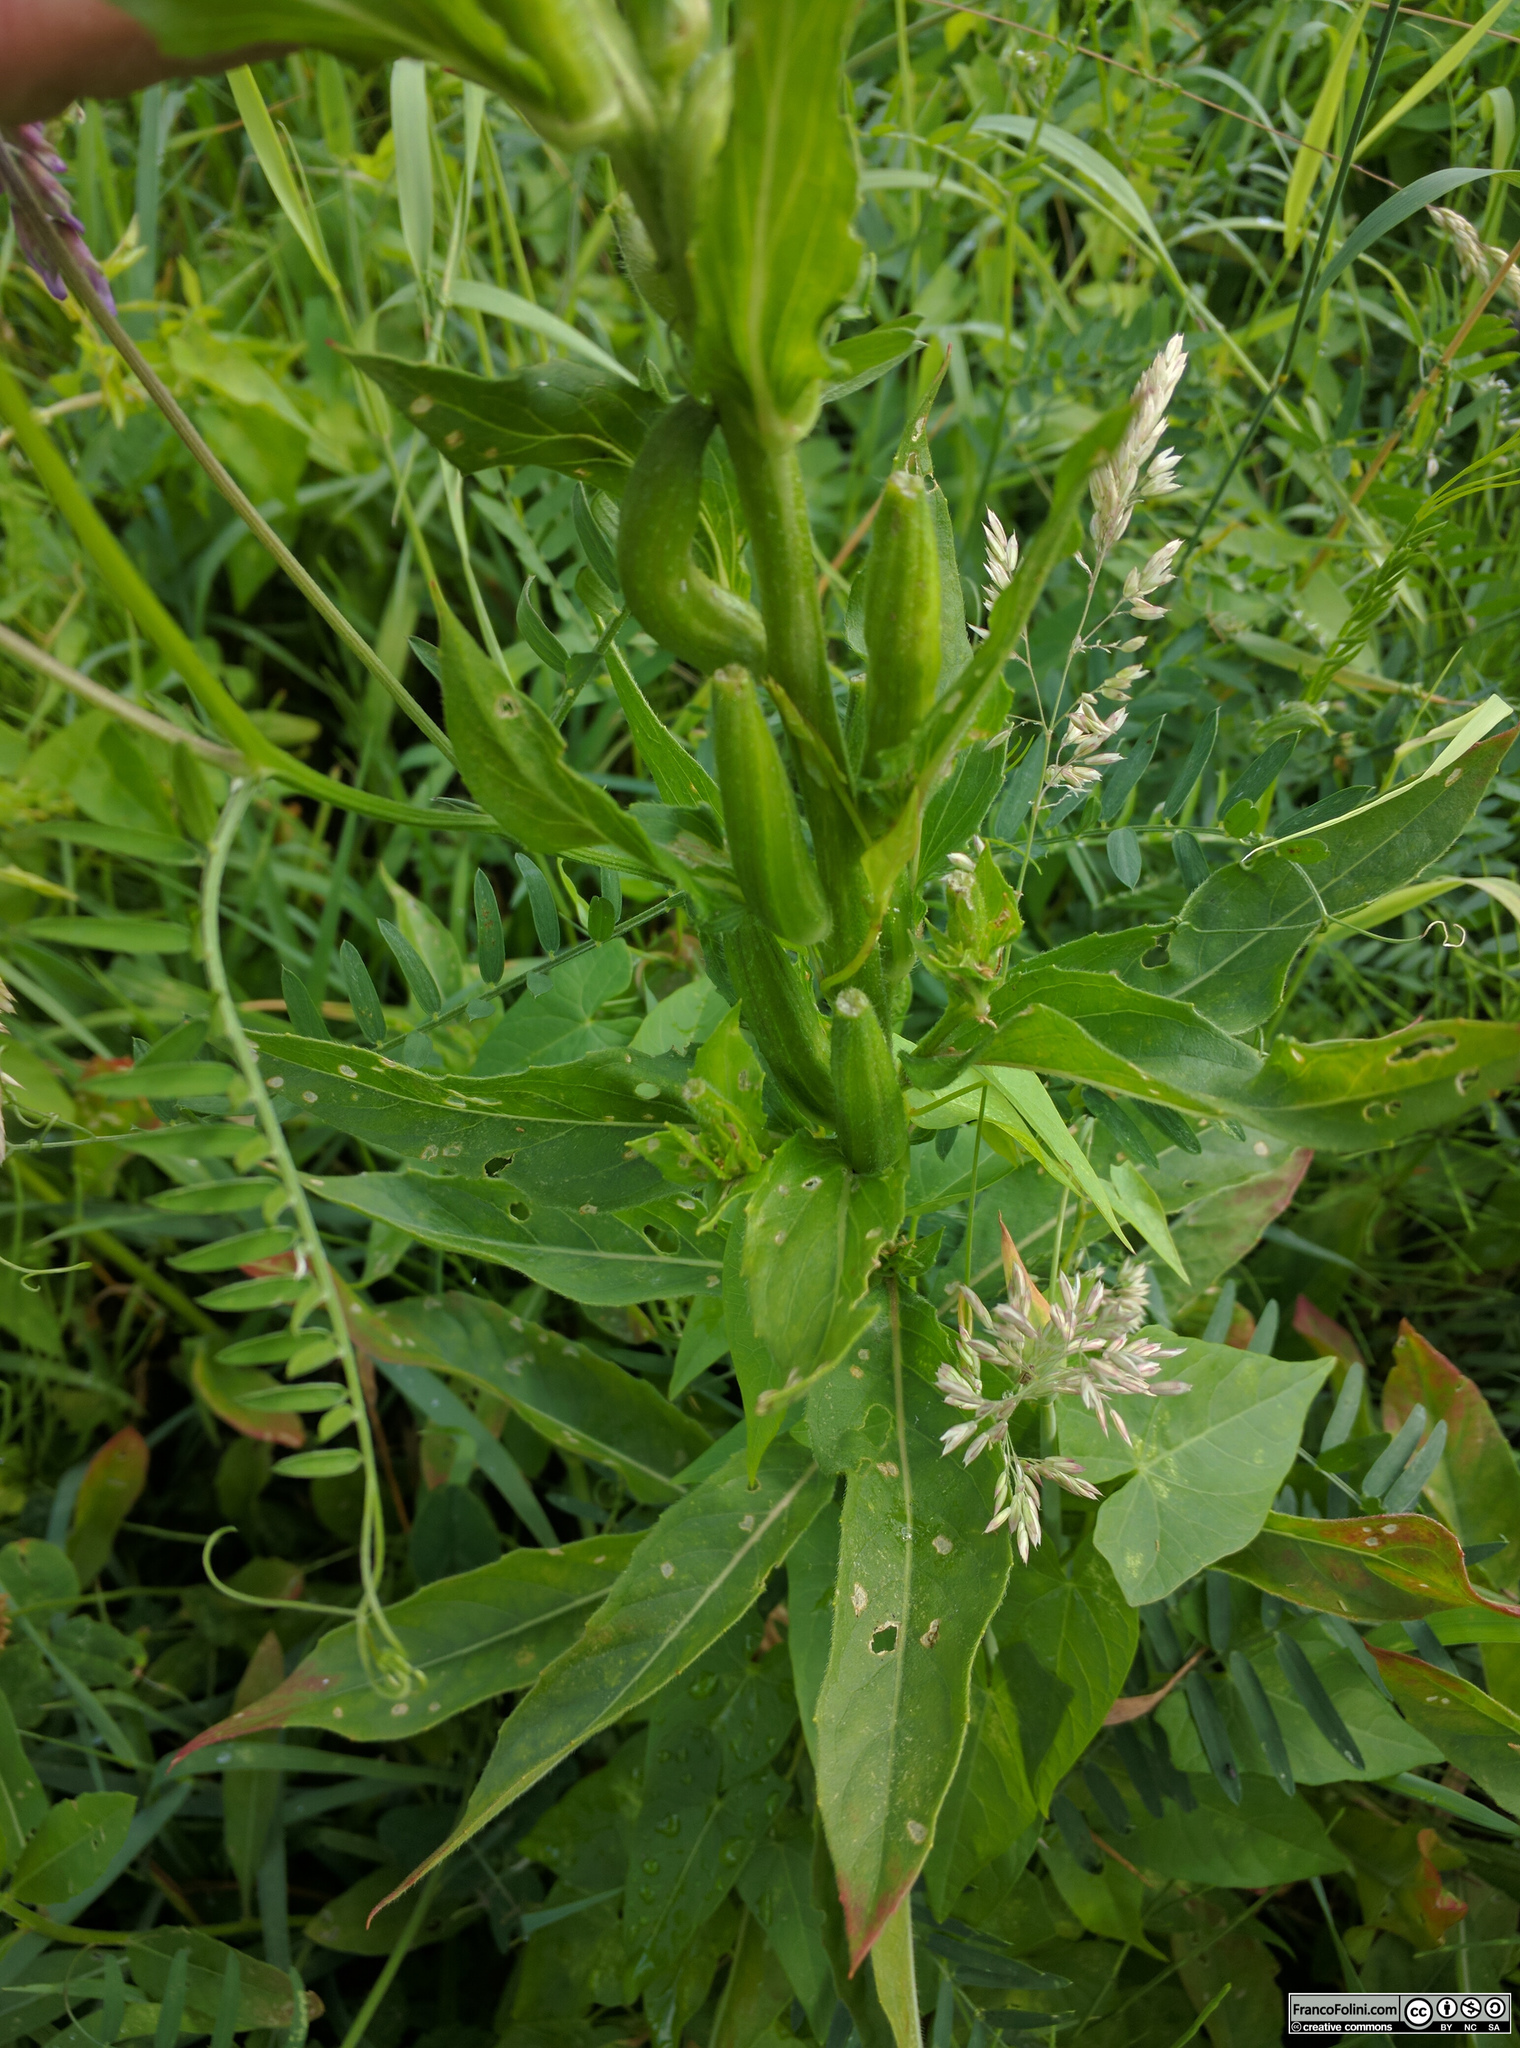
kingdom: Plantae
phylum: Tracheophyta
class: Magnoliopsida
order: Myrtales
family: Onagraceae
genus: Oenothera
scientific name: Oenothera biennis
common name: Common evening-primrose
